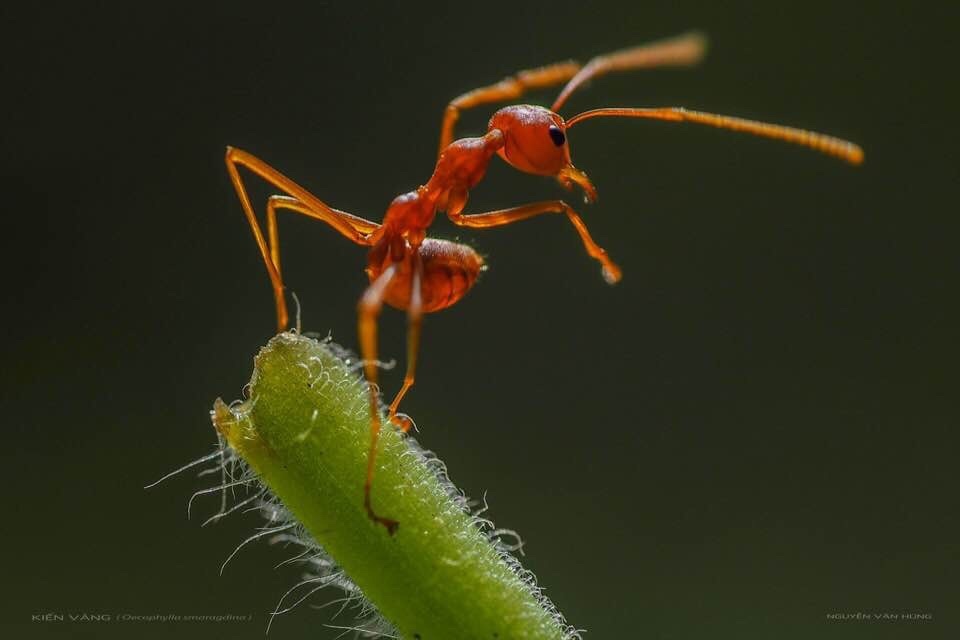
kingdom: Animalia
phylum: Arthropoda
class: Insecta
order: Hymenoptera
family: Formicidae
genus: Oecophylla
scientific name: Oecophylla smaragdina
